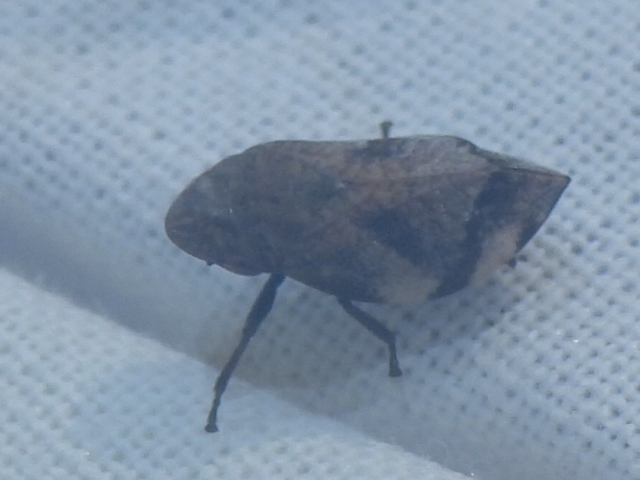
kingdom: Animalia
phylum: Arthropoda
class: Insecta
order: Hemiptera
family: Aphrophoridae
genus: Lepyronia
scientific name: Lepyronia quadrangularis
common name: Diamond-backed spittlebug
